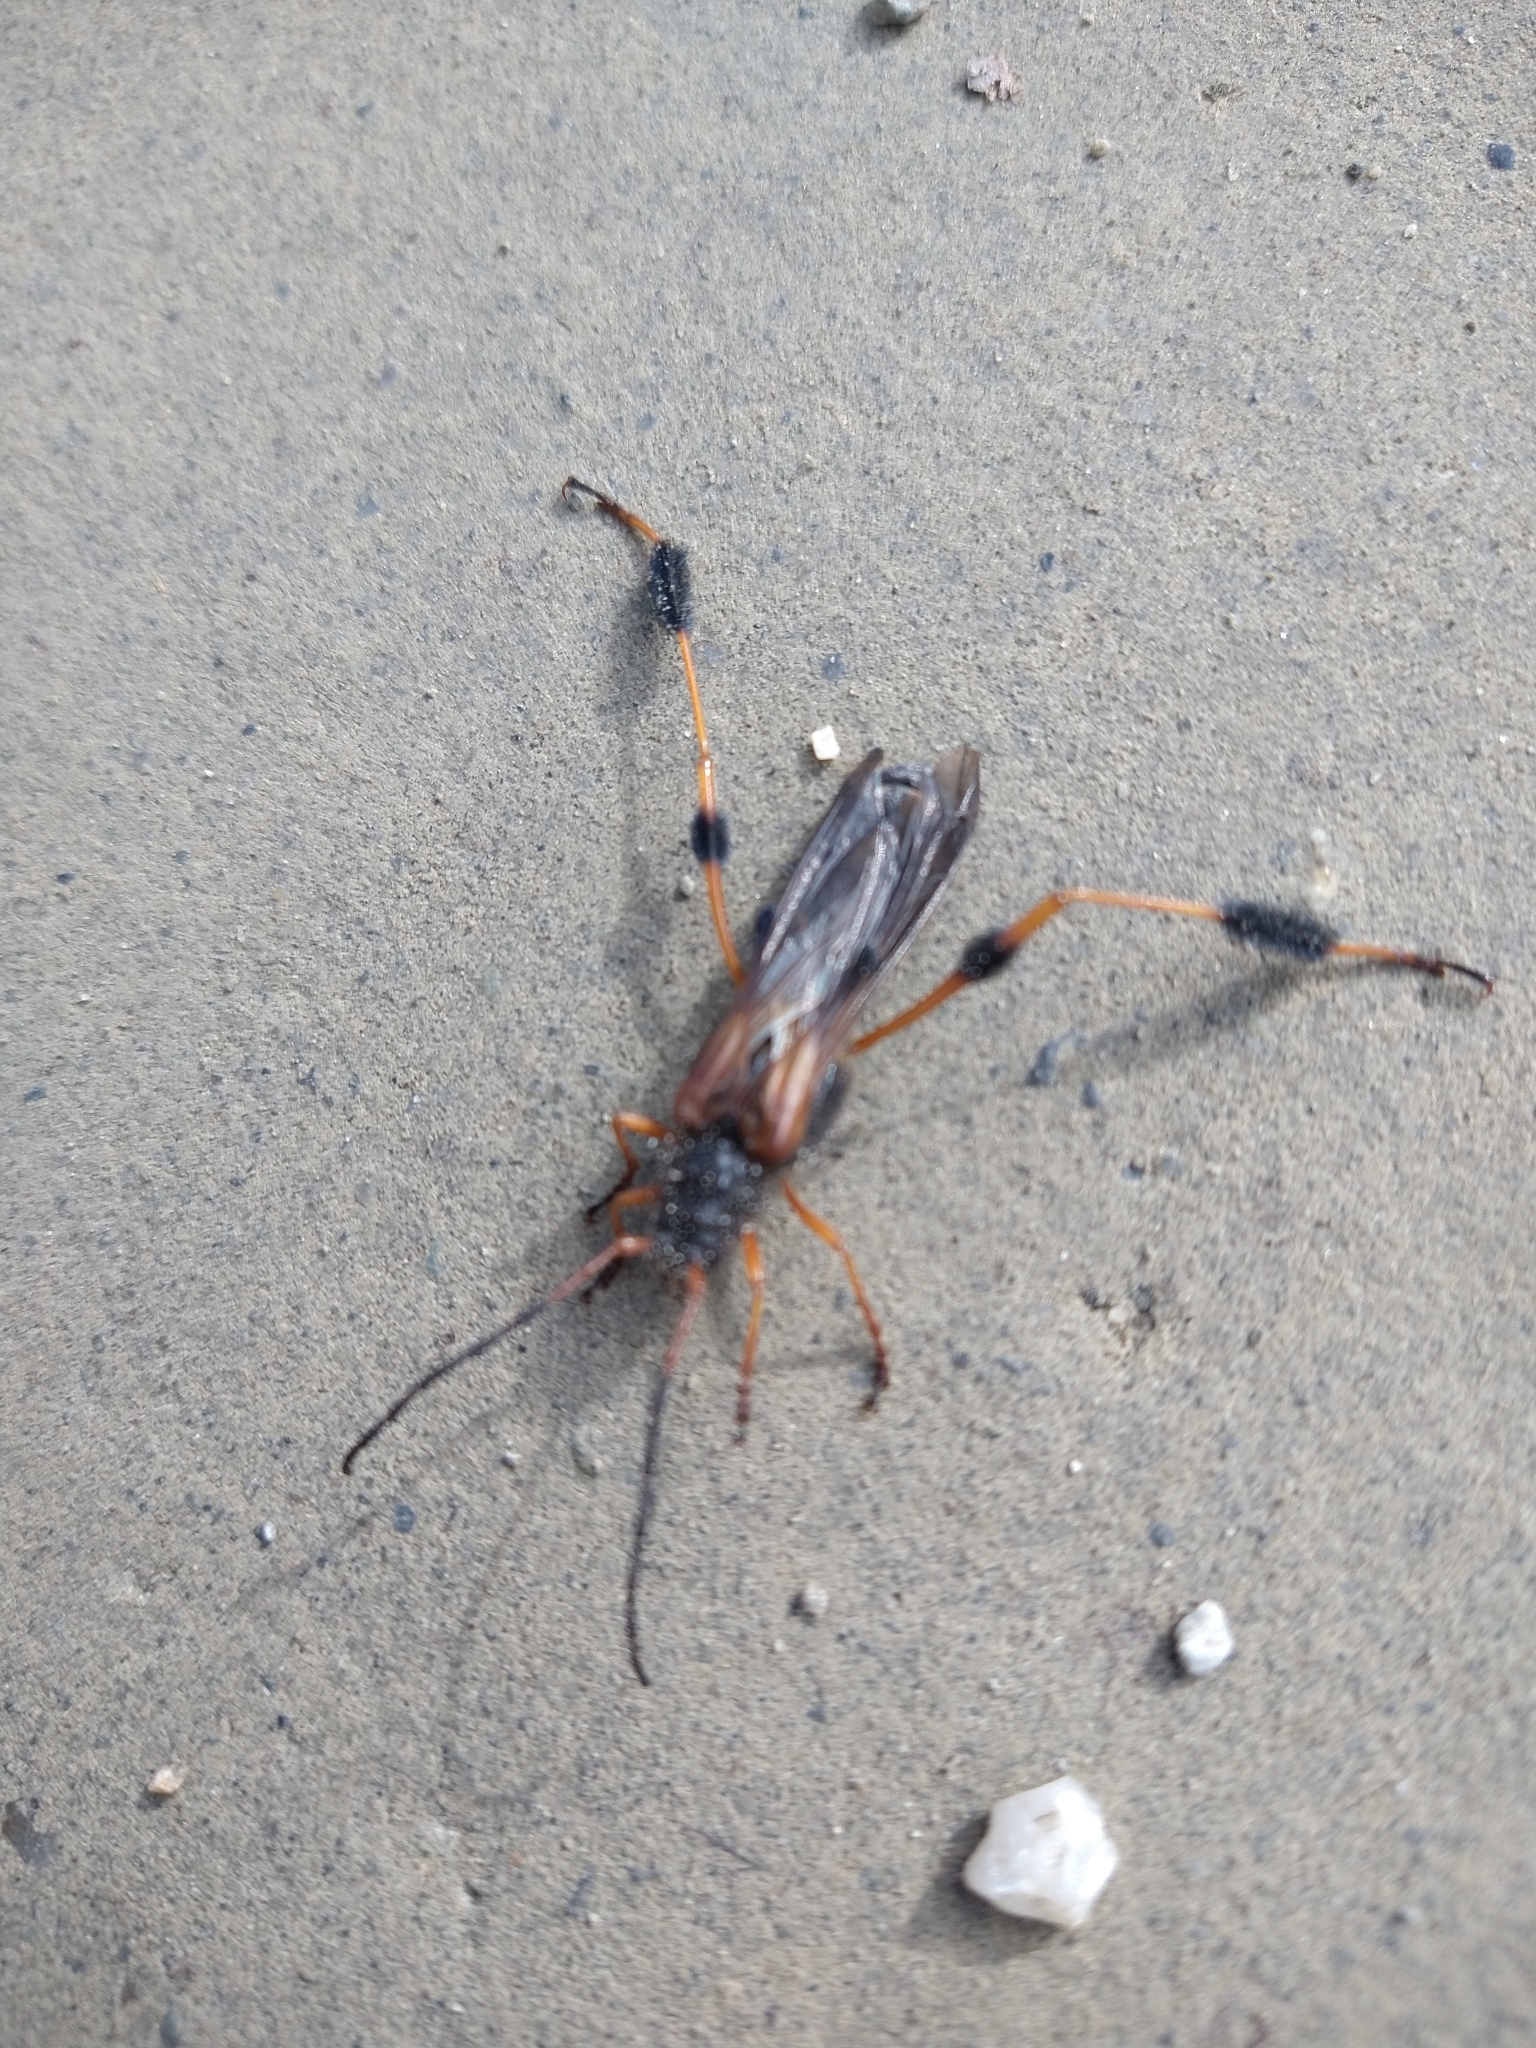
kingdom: Animalia
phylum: Arthropoda
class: Insecta
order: Coleoptera
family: Cerambycidae
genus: Callisphyris
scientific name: Callisphyris leptopus
